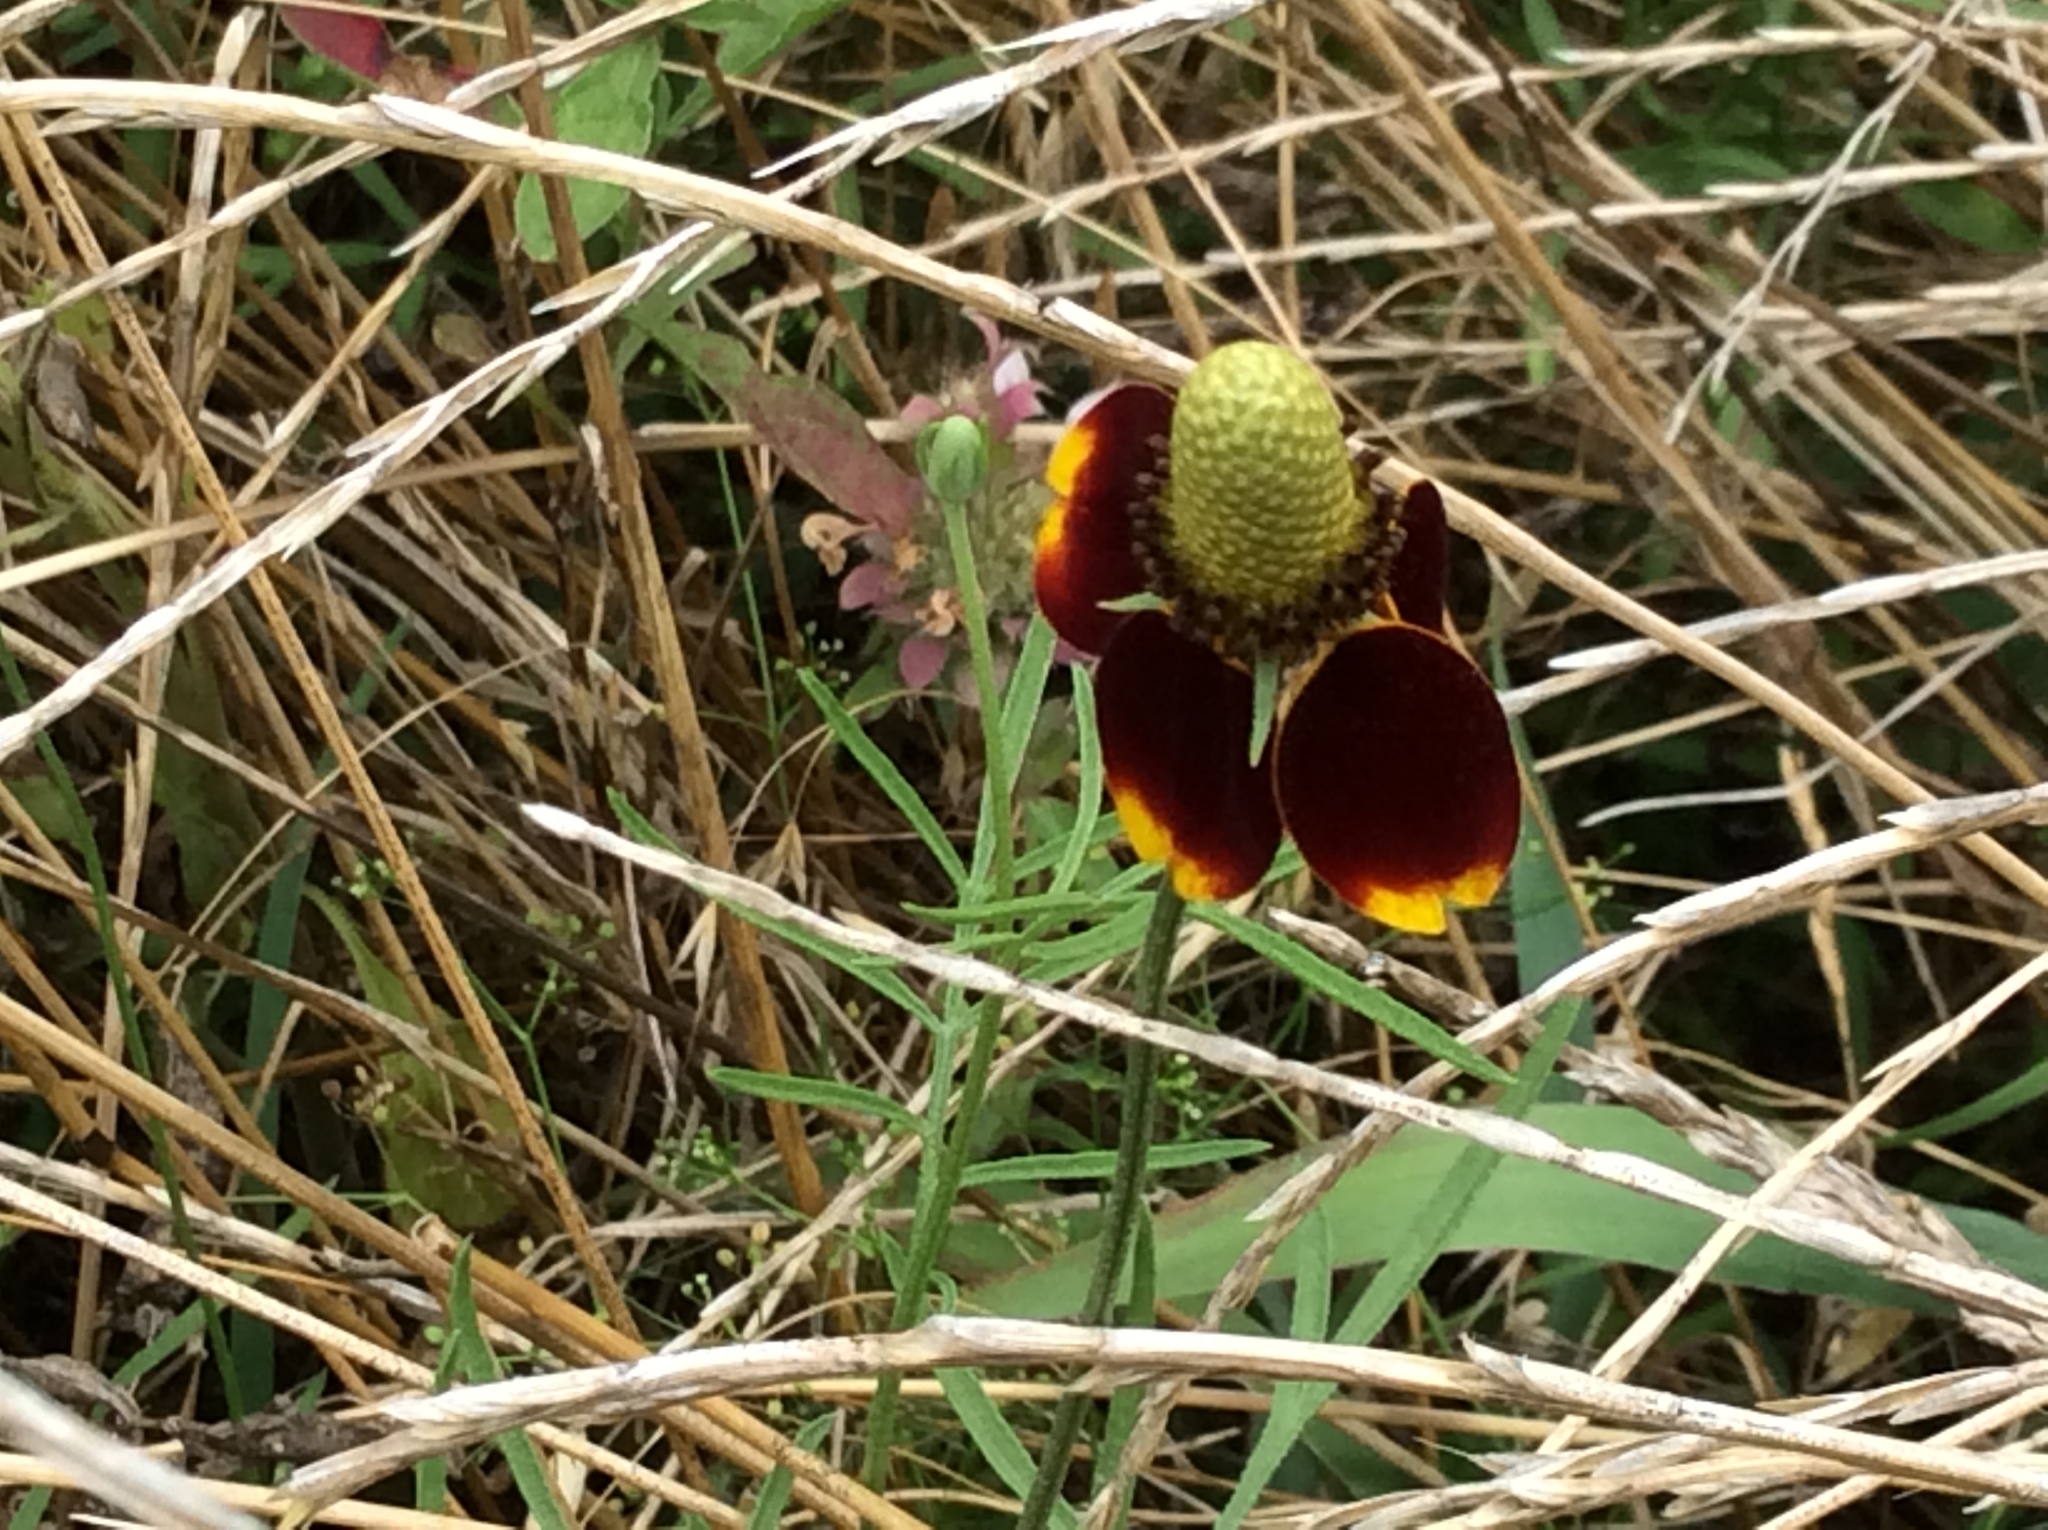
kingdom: Plantae
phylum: Tracheophyta
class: Magnoliopsida
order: Asterales
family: Asteraceae
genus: Ratibida
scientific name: Ratibida columnifera
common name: Prairie coneflower
